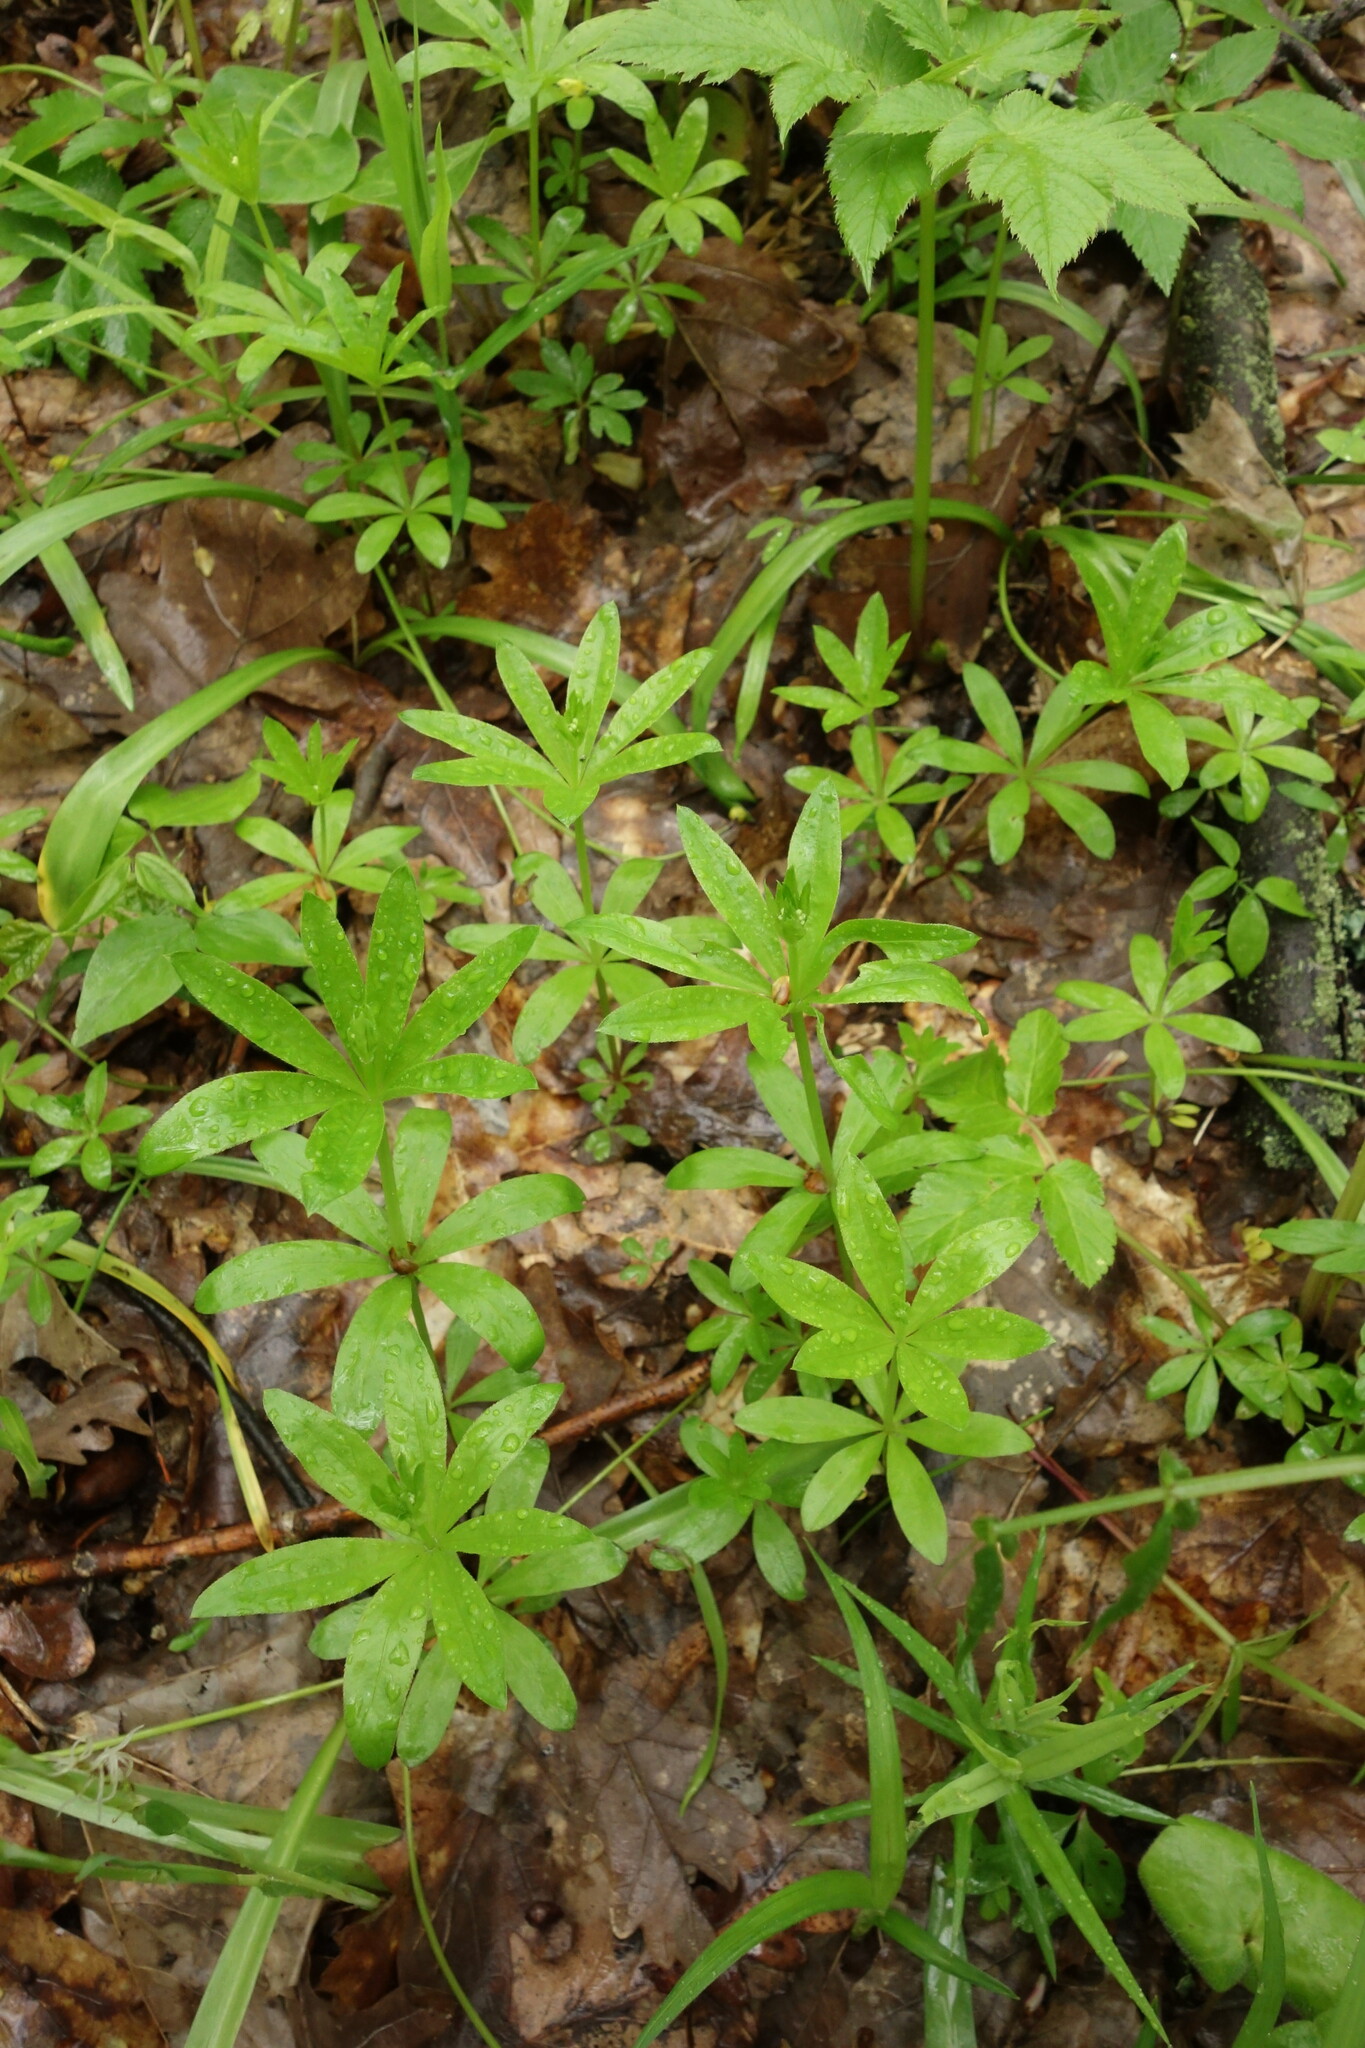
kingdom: Plantae
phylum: Tracheophyta
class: Magnoliopsida
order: Gentianales
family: Rubiaceae
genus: Galium
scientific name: Galium odoratum
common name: Sweet woodruff
